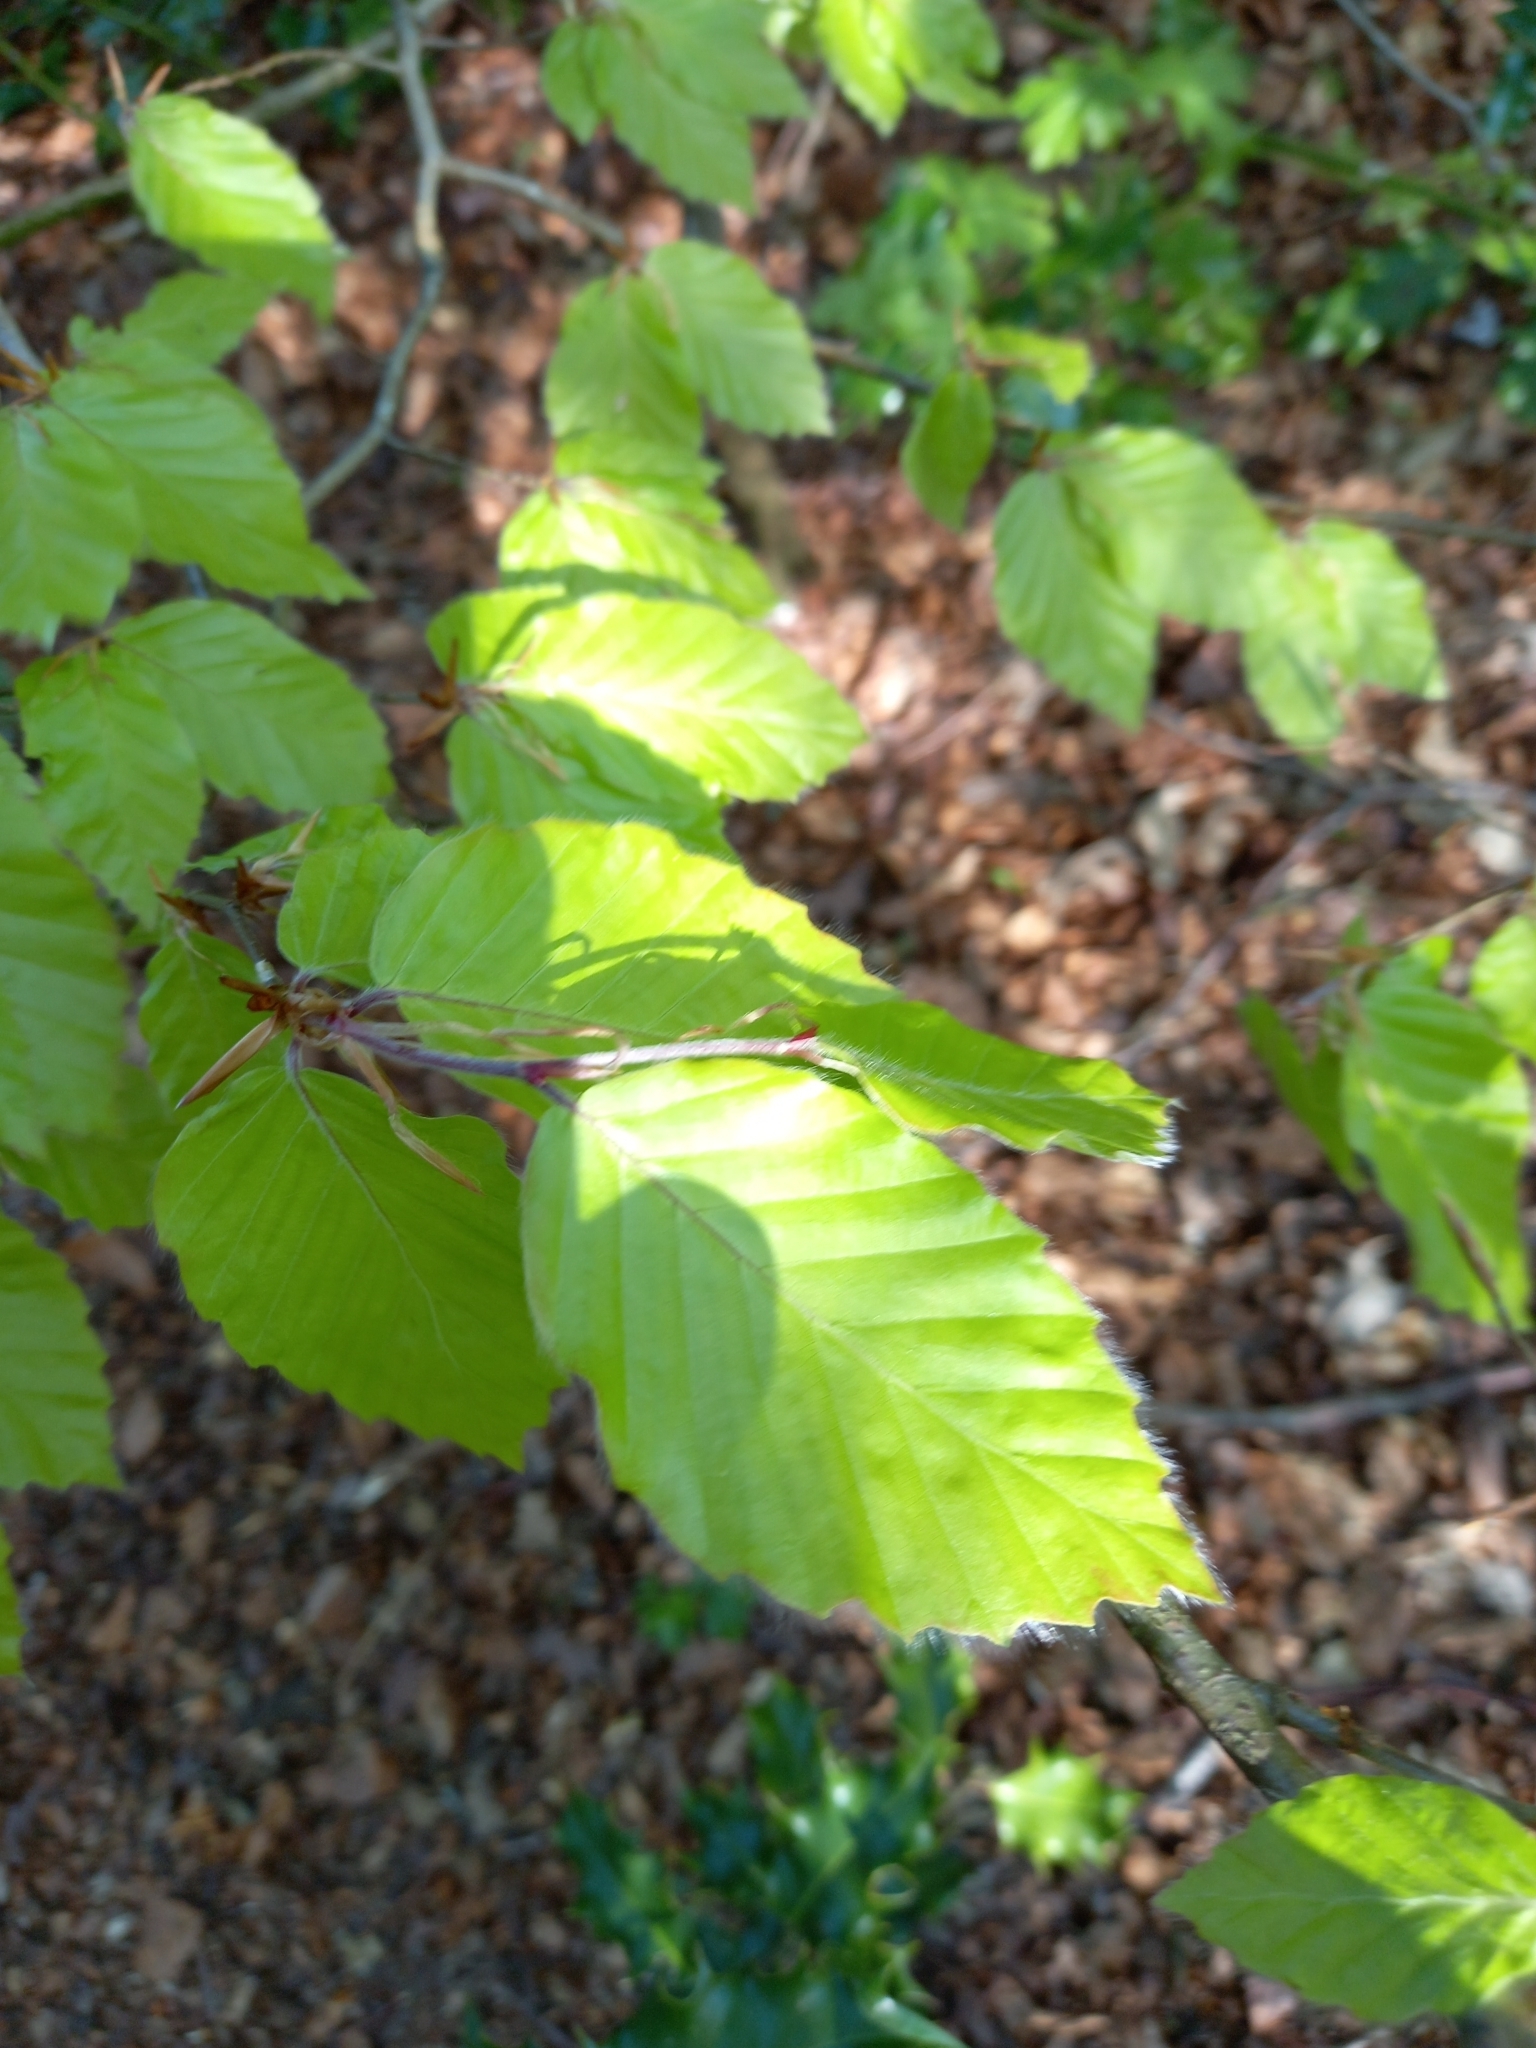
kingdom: Plantae
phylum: Tracheophyta
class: Magnoliopsida
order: Fagales
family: Fagaceae
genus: Fagus
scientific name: Fagus sylvatica
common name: Beech
